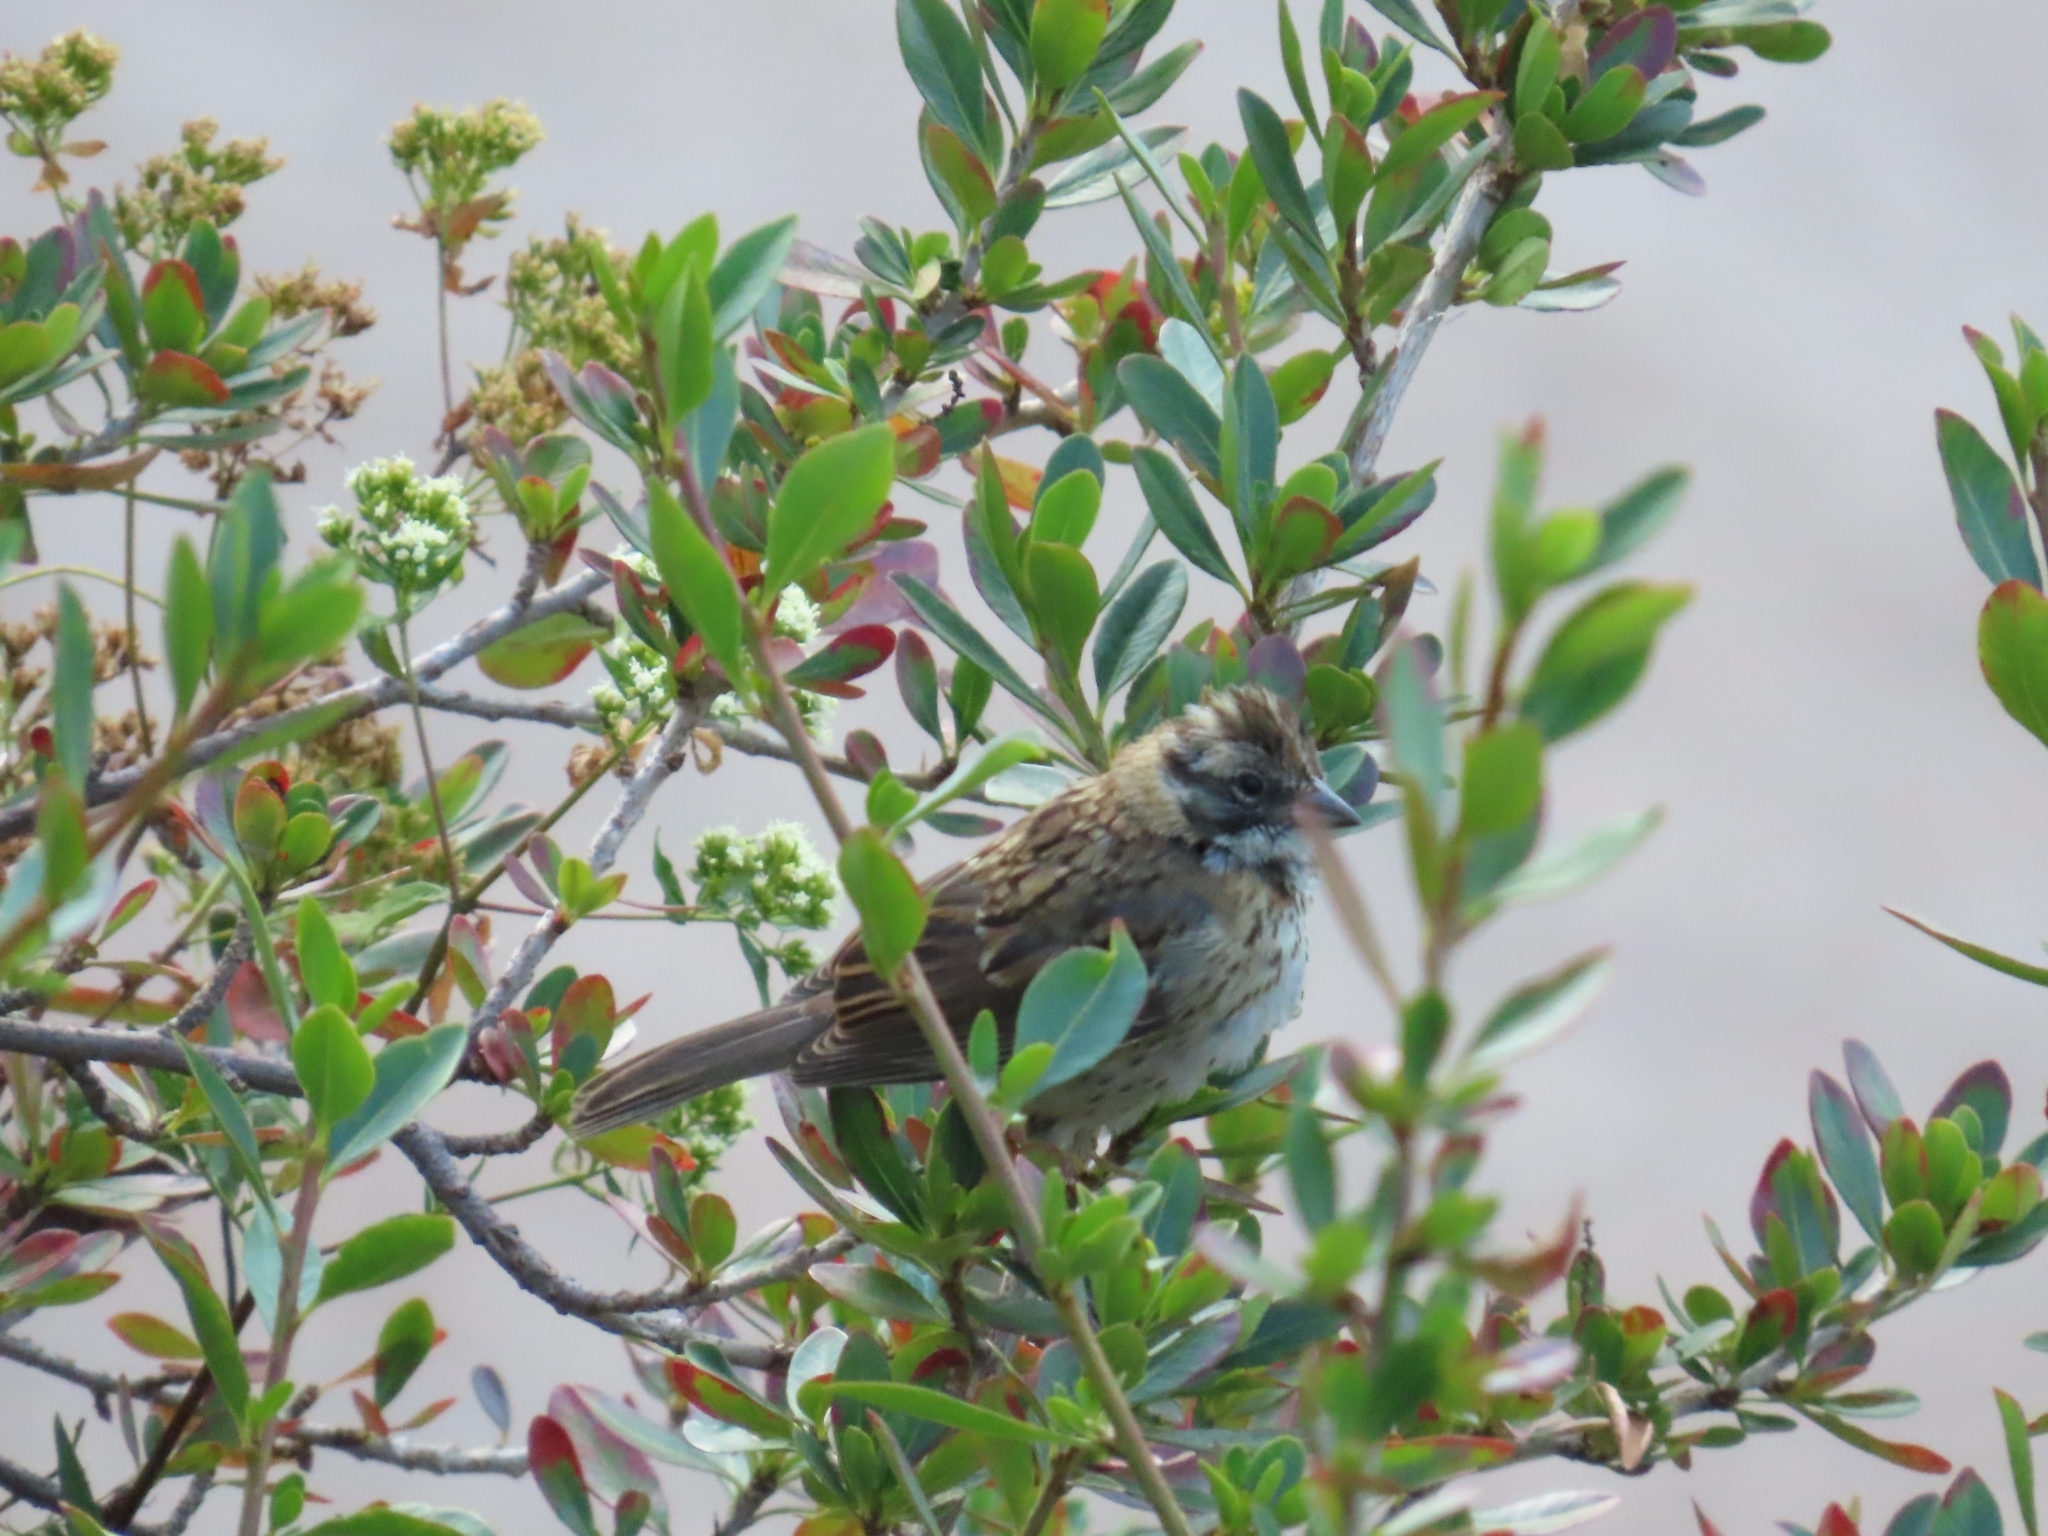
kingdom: Animalia
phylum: Chordata
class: Aves
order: Passeriformes
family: Passerellidae
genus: Zonotrichia
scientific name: Zonotrichia capensis
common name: Rufous-collared sparrow
